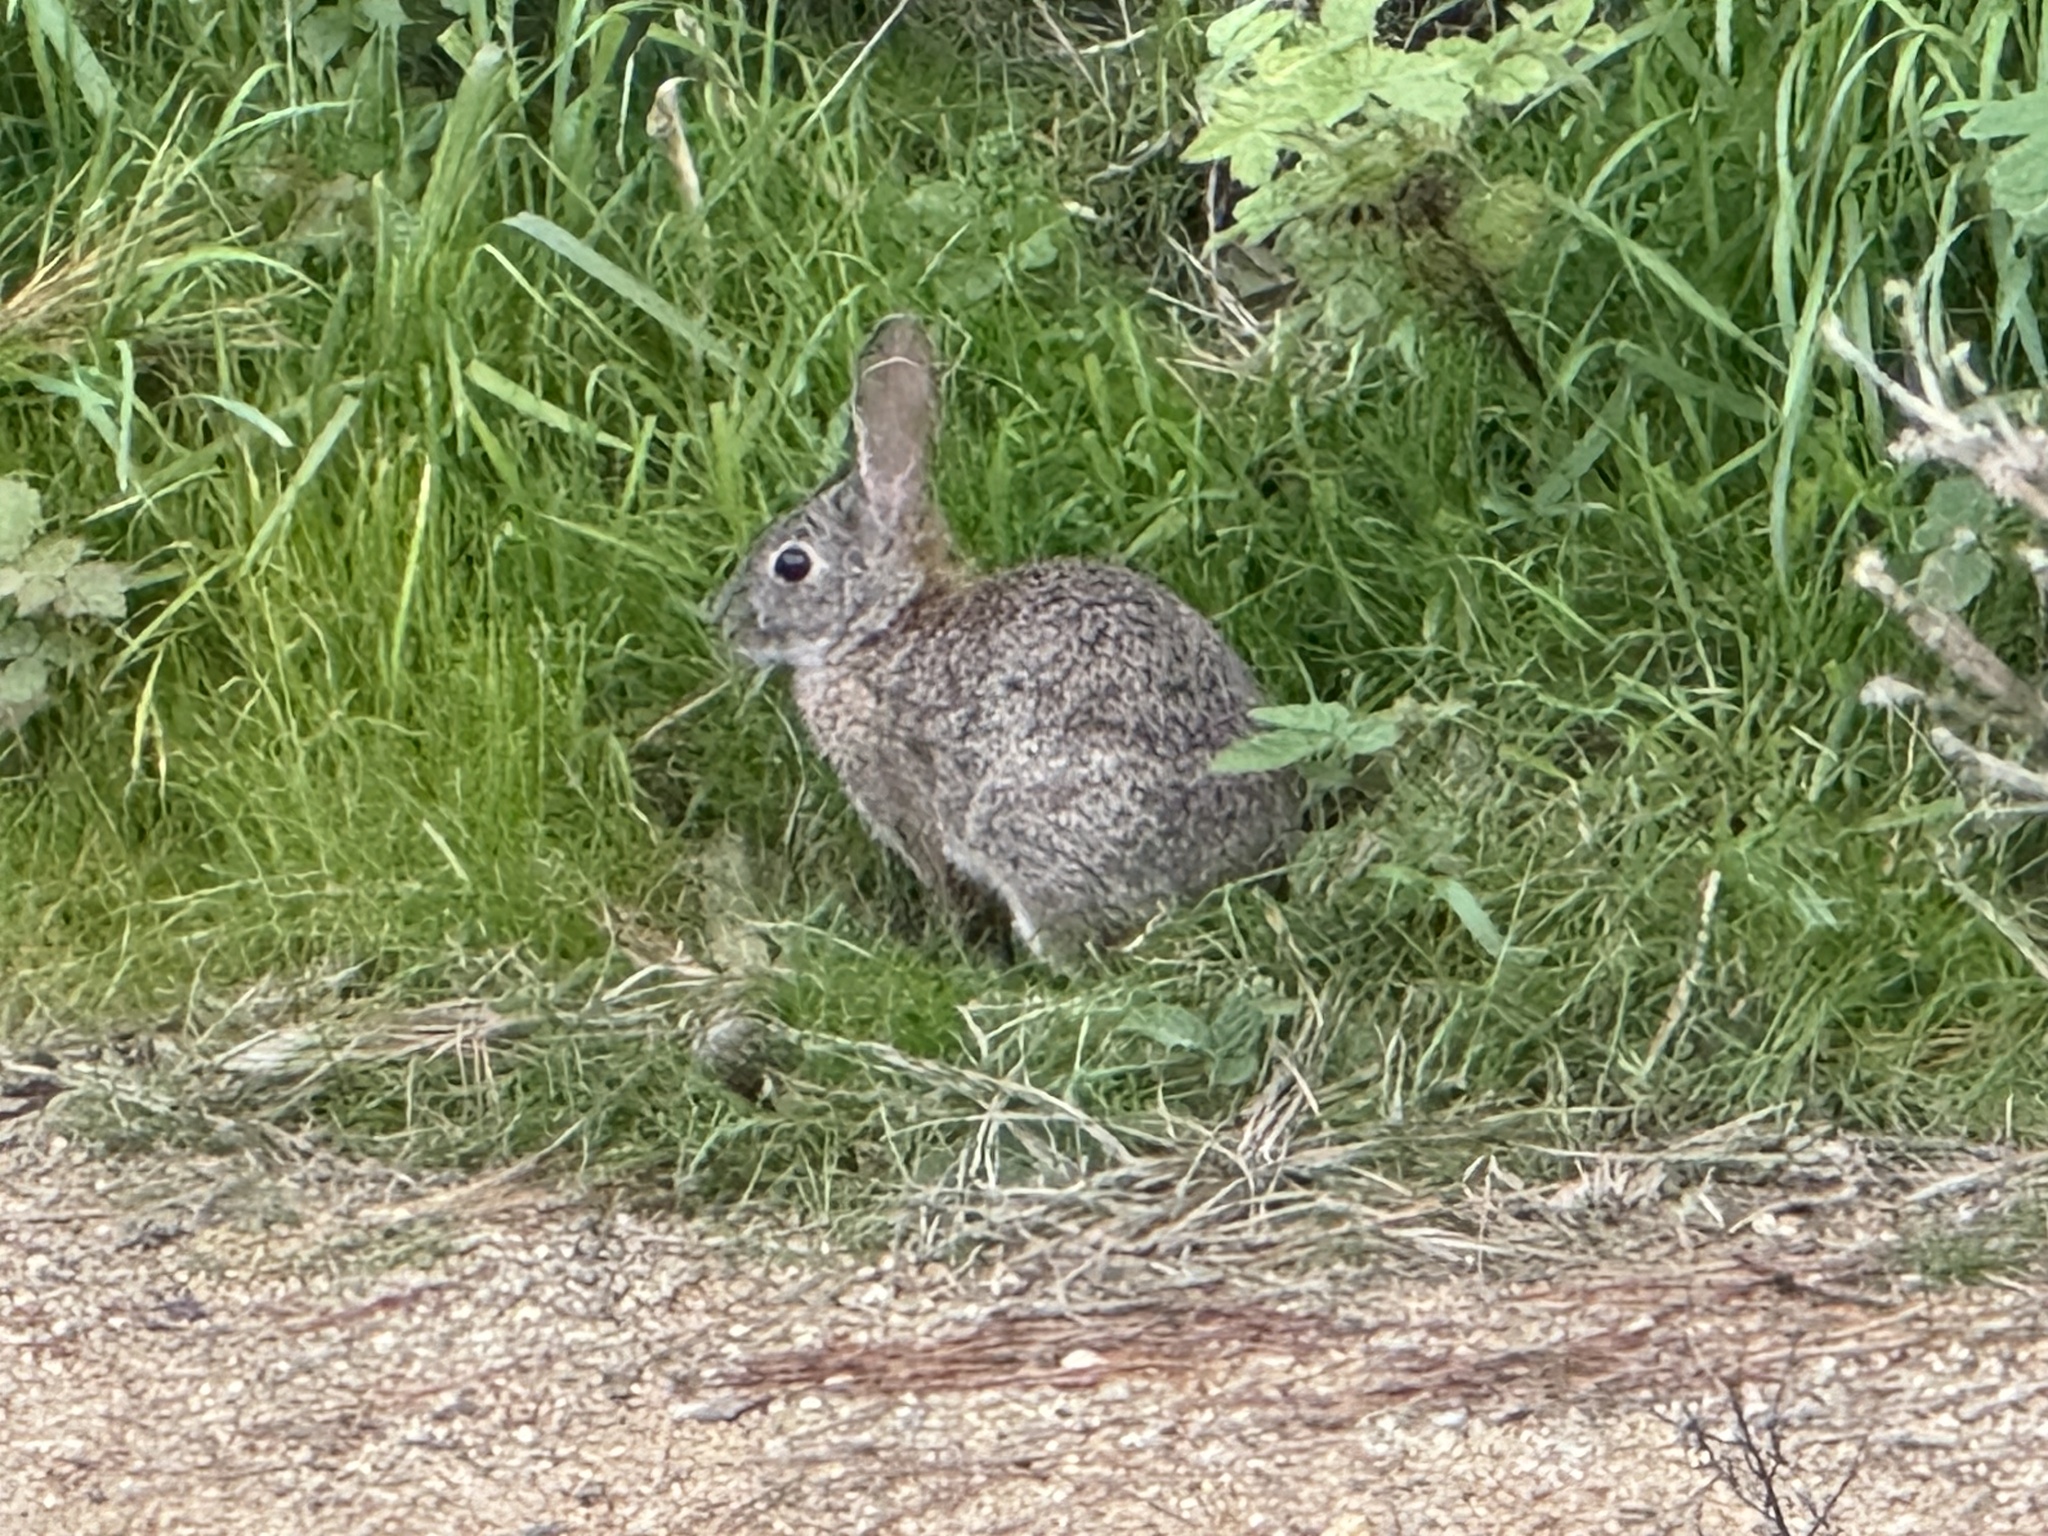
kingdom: Animalia
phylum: Chordata
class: Mammalia
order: Lagomorpha
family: Leporidae
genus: Sylvilagus
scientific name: Sylvilagus bachmani
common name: Brush rabbit
